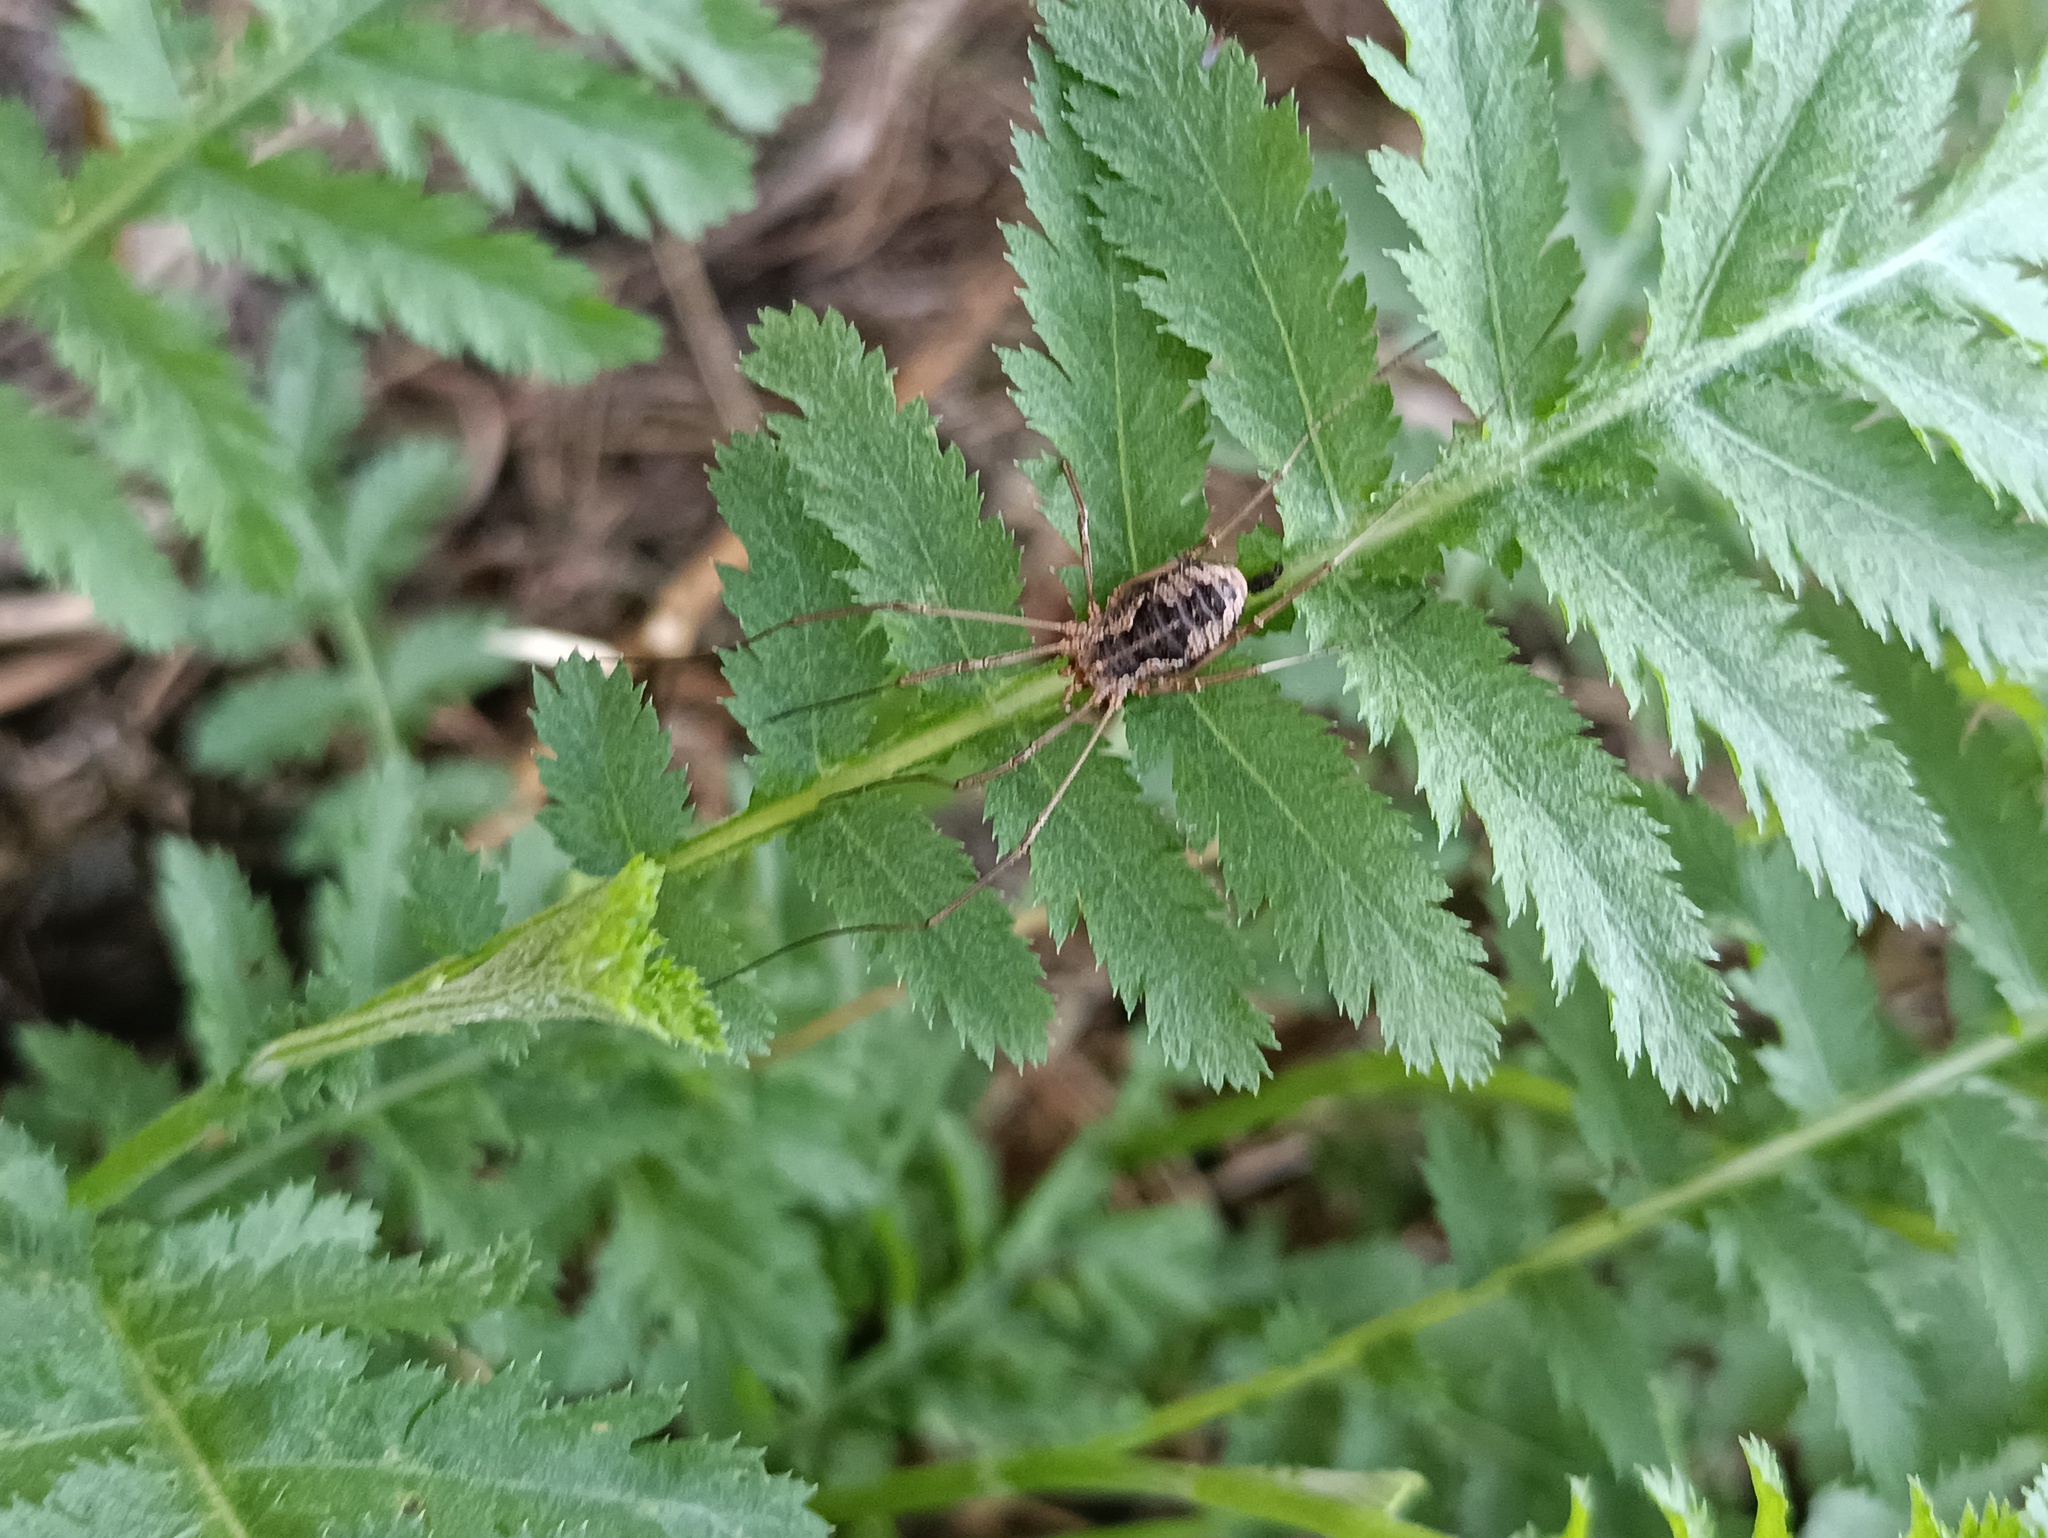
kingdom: Animalia
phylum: Arthropoda
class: Arachnida
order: Opiliones
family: Phalangiidae
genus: Phalangium
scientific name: Phalangium opilio
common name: Daddy longleg
